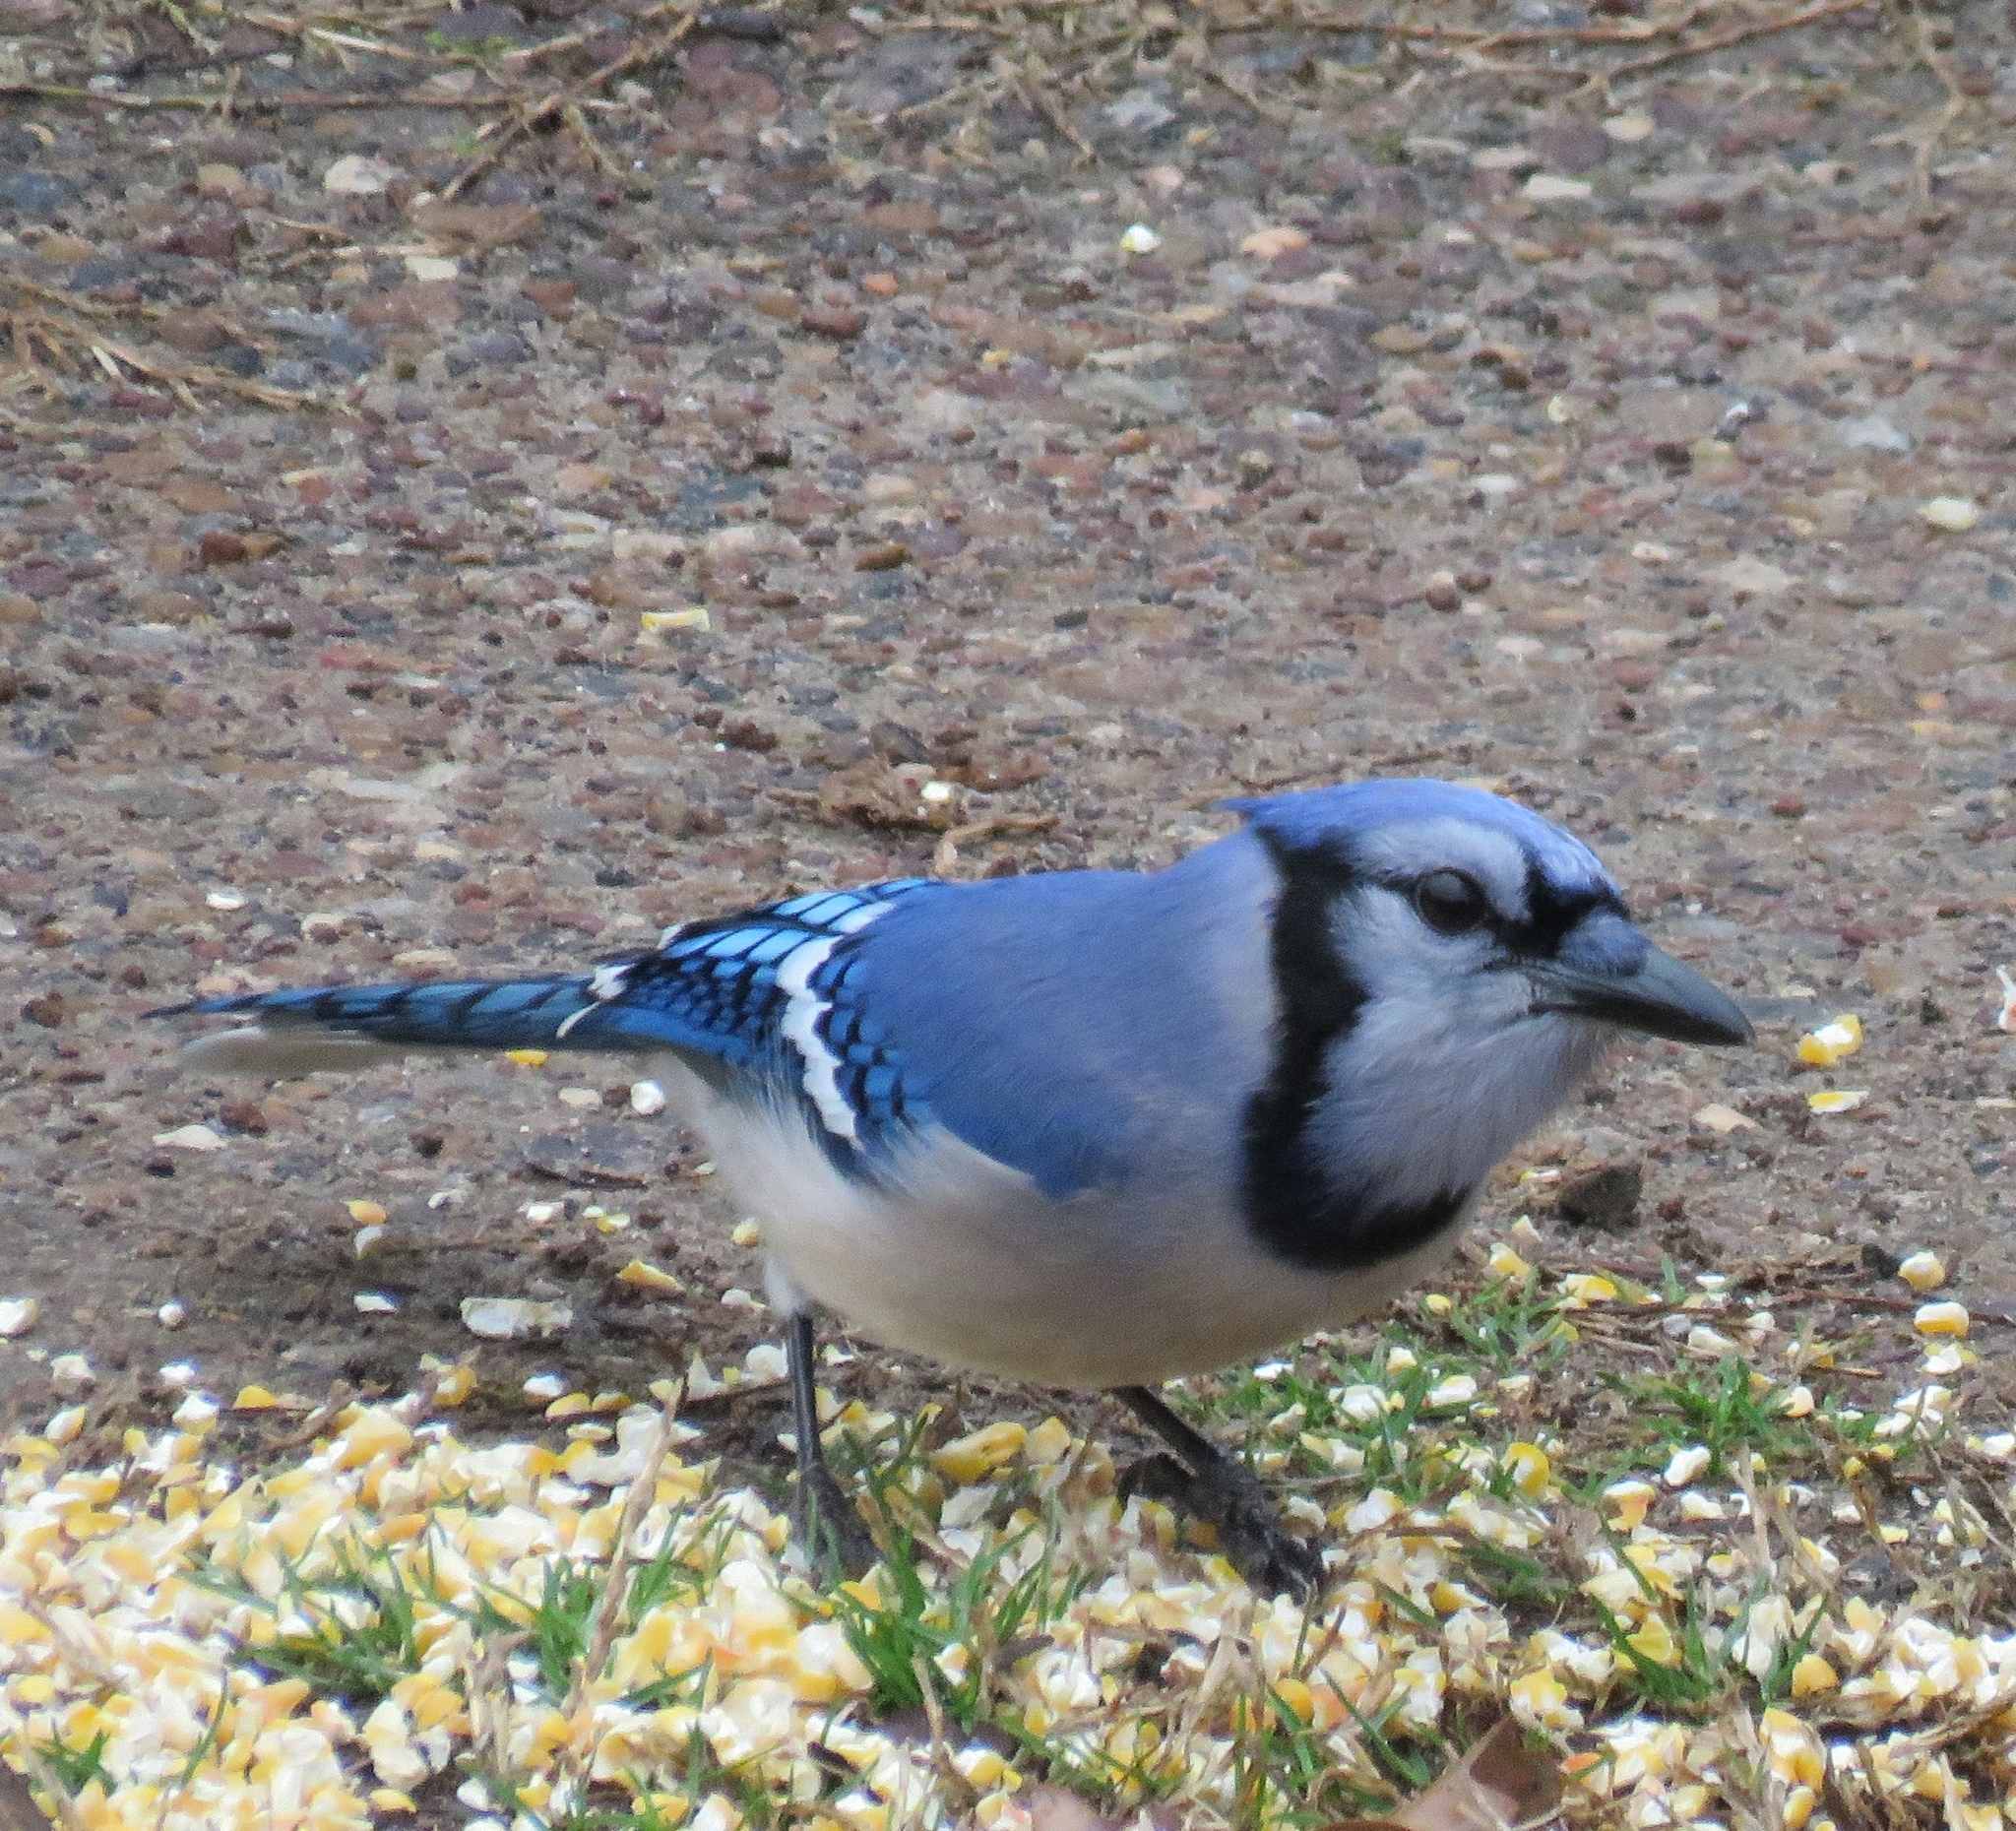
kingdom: Animalia
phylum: Chordata
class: Aves
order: Passeriformes
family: Corvidae
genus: Cyanocitta
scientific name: Cyanocitta cristata
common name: Blue jay
